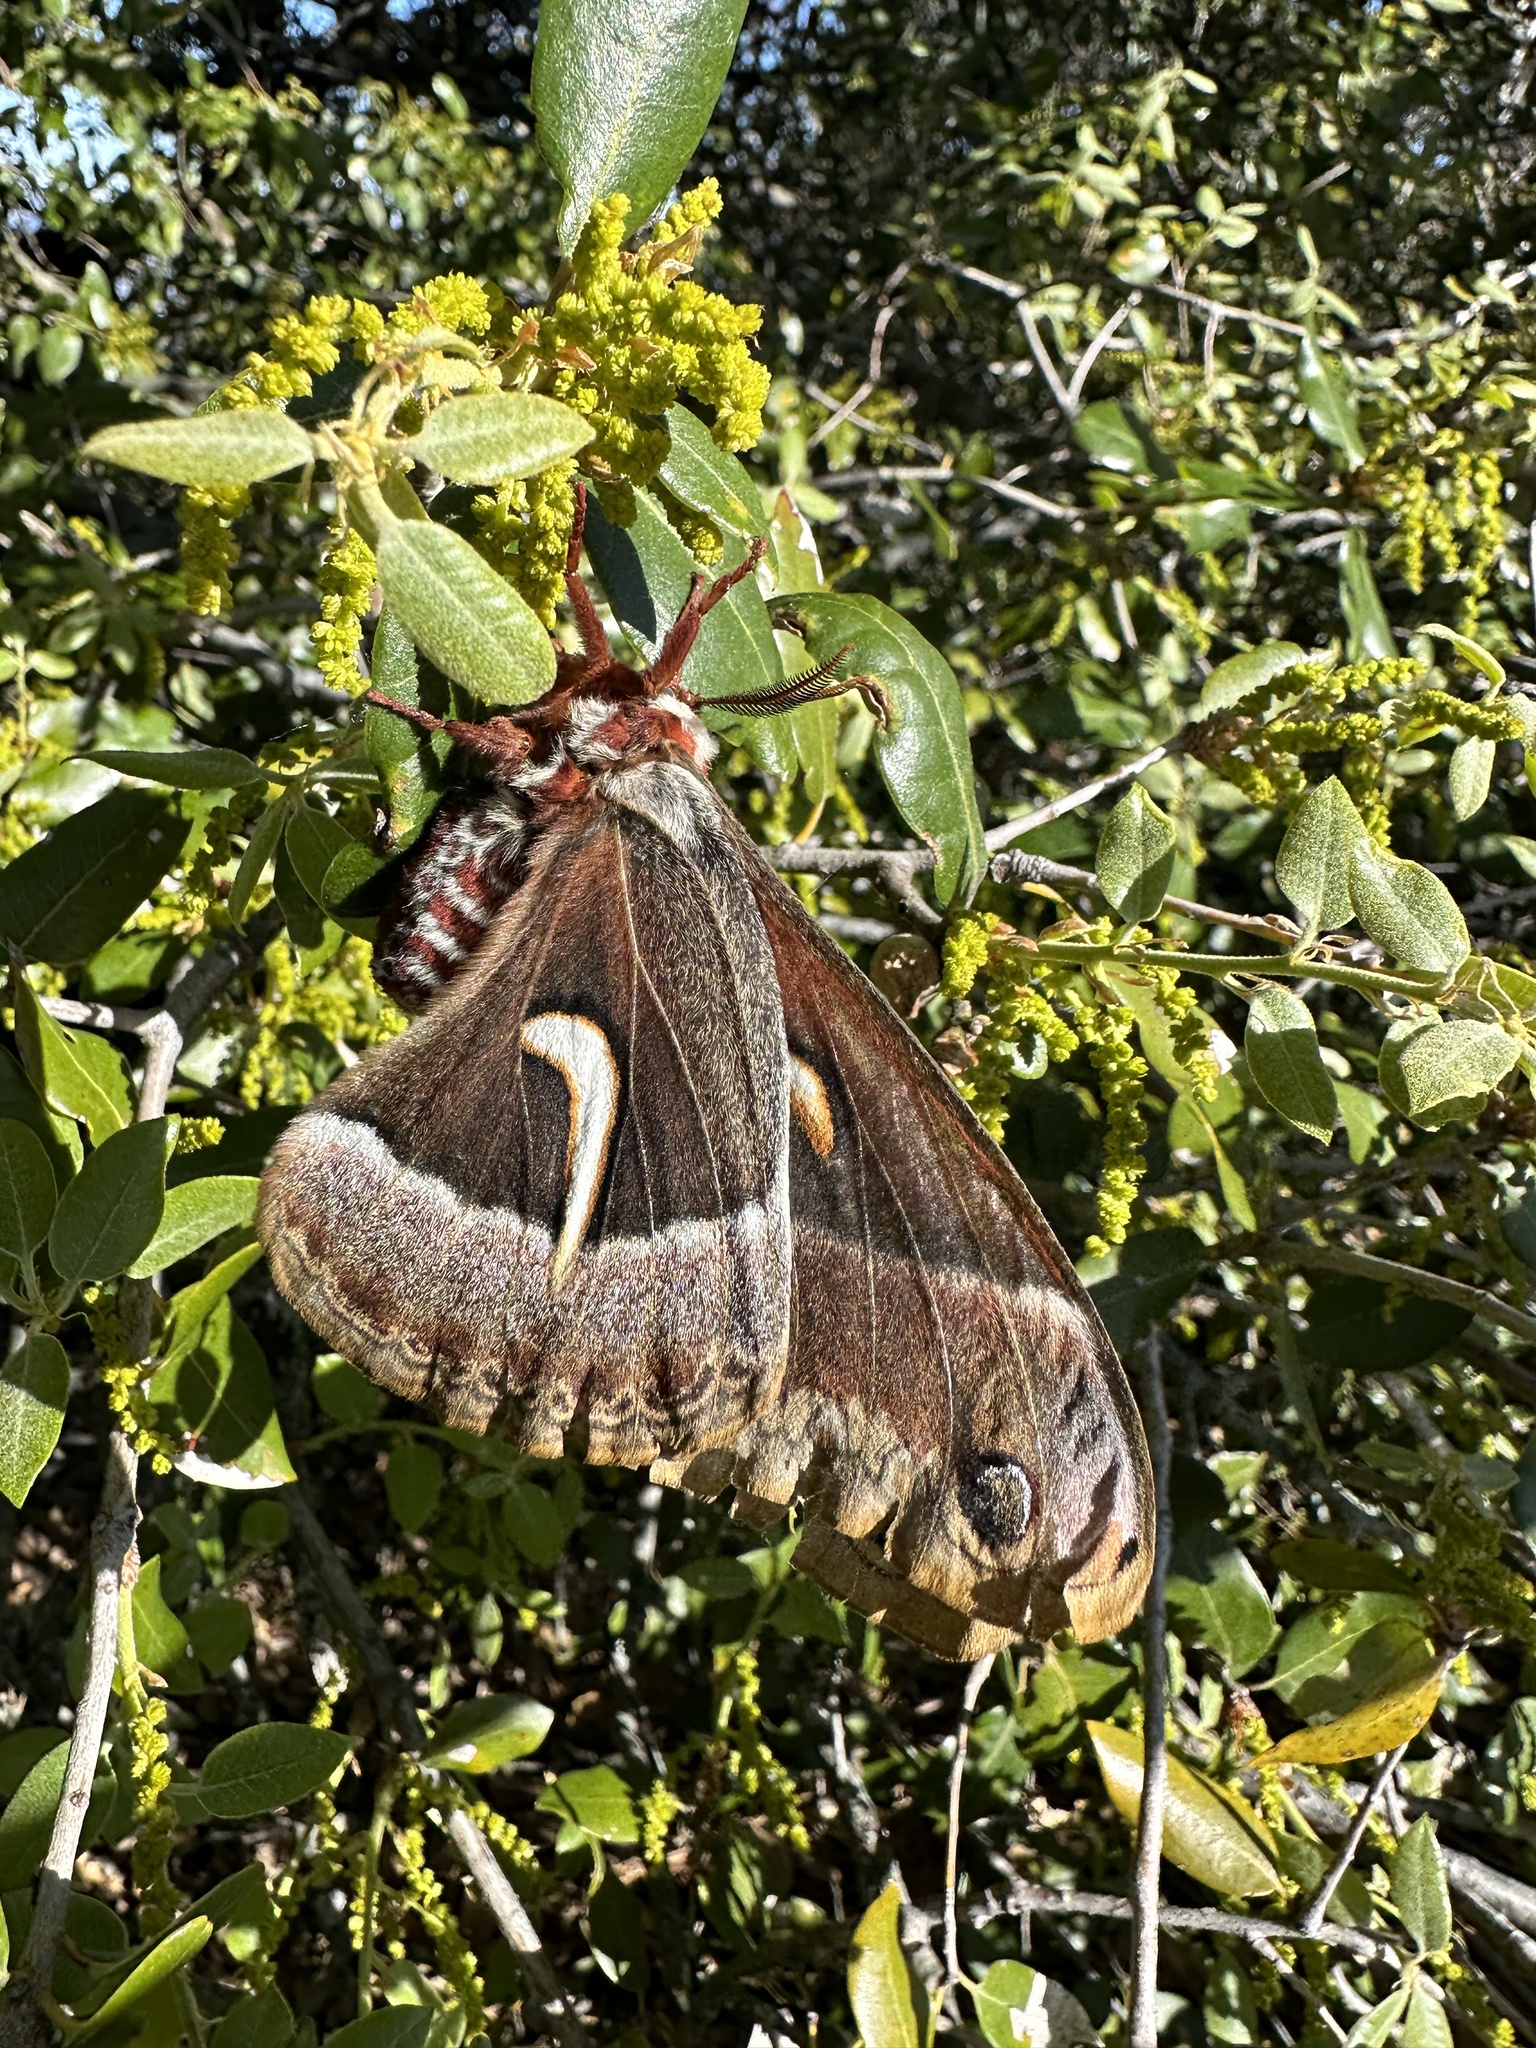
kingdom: Animalia
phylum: Arthropoda
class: Insecta
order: Lepidoptera
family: Saturniidae
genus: Hyalophora
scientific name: Hyalophora euryalus
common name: Ceanothus silkmoth
